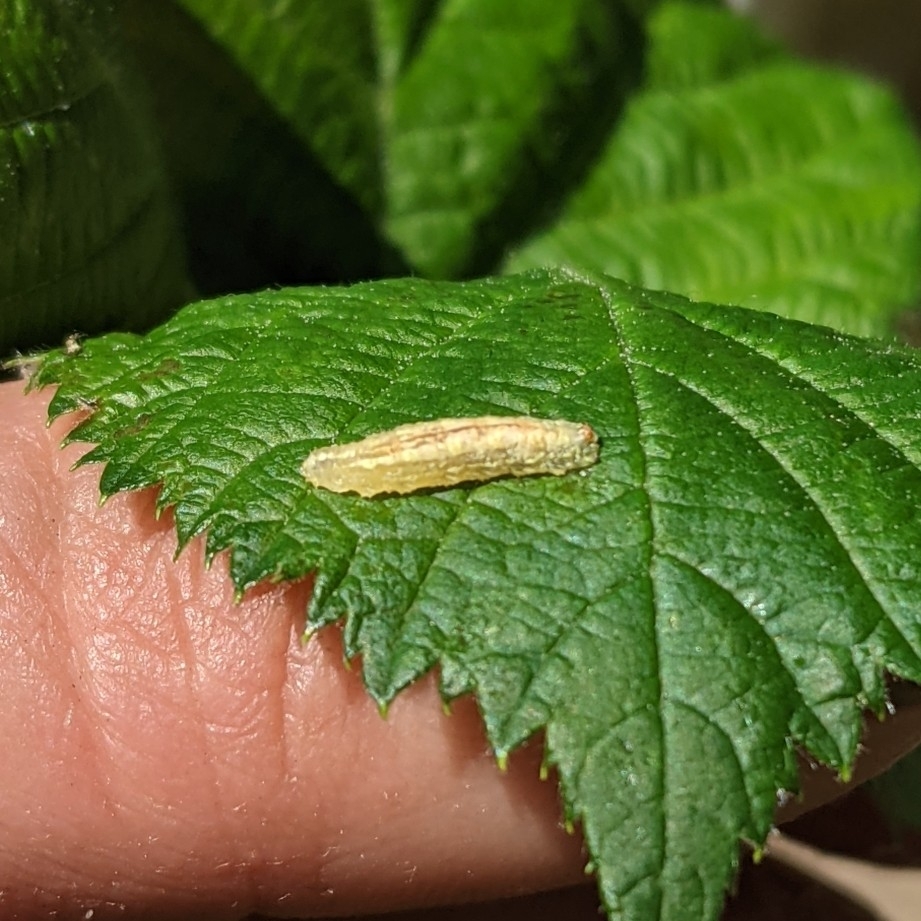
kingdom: Animalia
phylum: Arthropoda
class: Insecta
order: Diptera
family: Syrphidae
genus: Syrphus
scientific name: Syrphus
